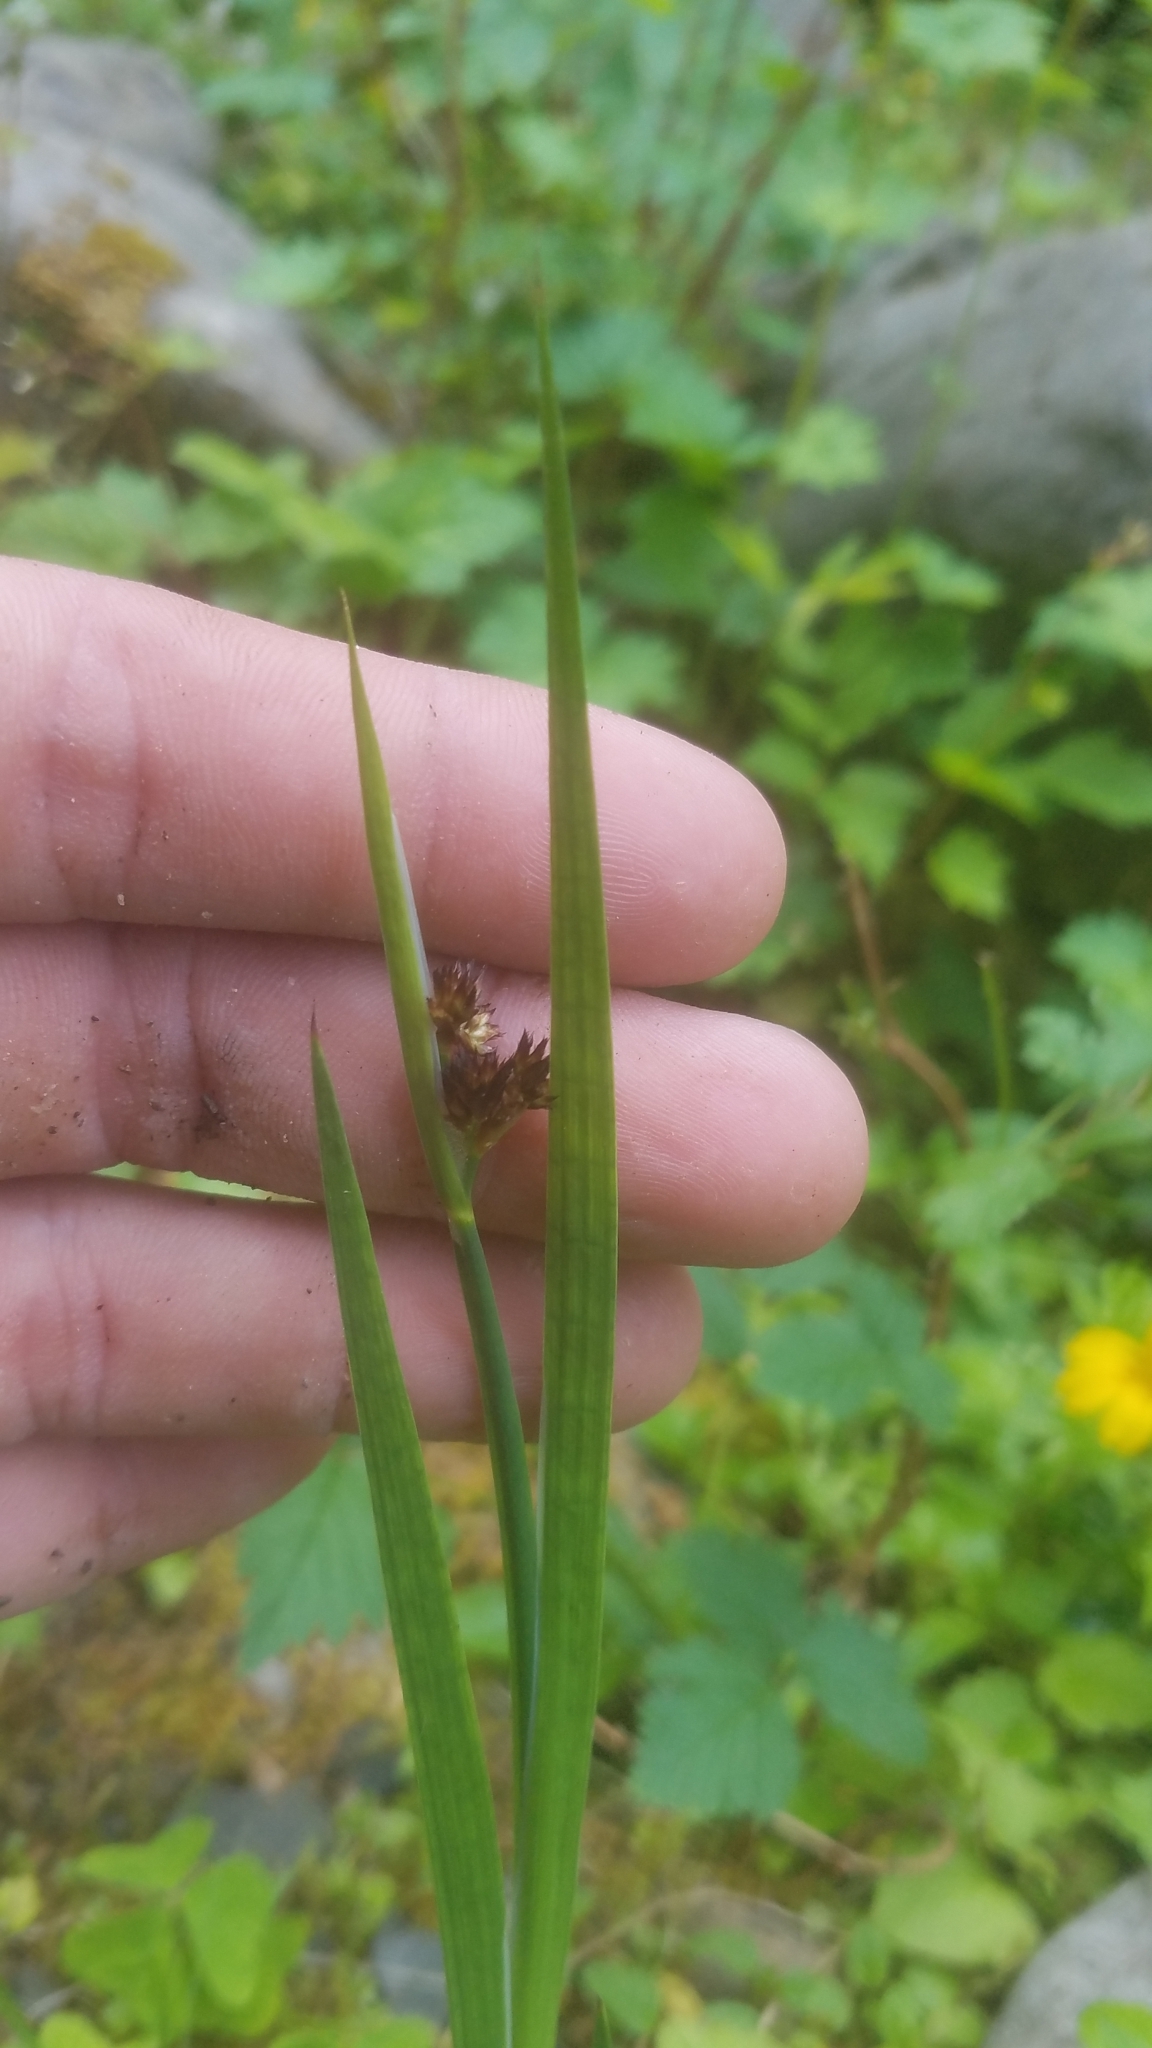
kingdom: Plantae
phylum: Tracheophyta
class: Liliopsida
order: Poales
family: Juncaceae
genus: Juncus
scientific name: Juncus ensifolius
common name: Sword-leaved rush
